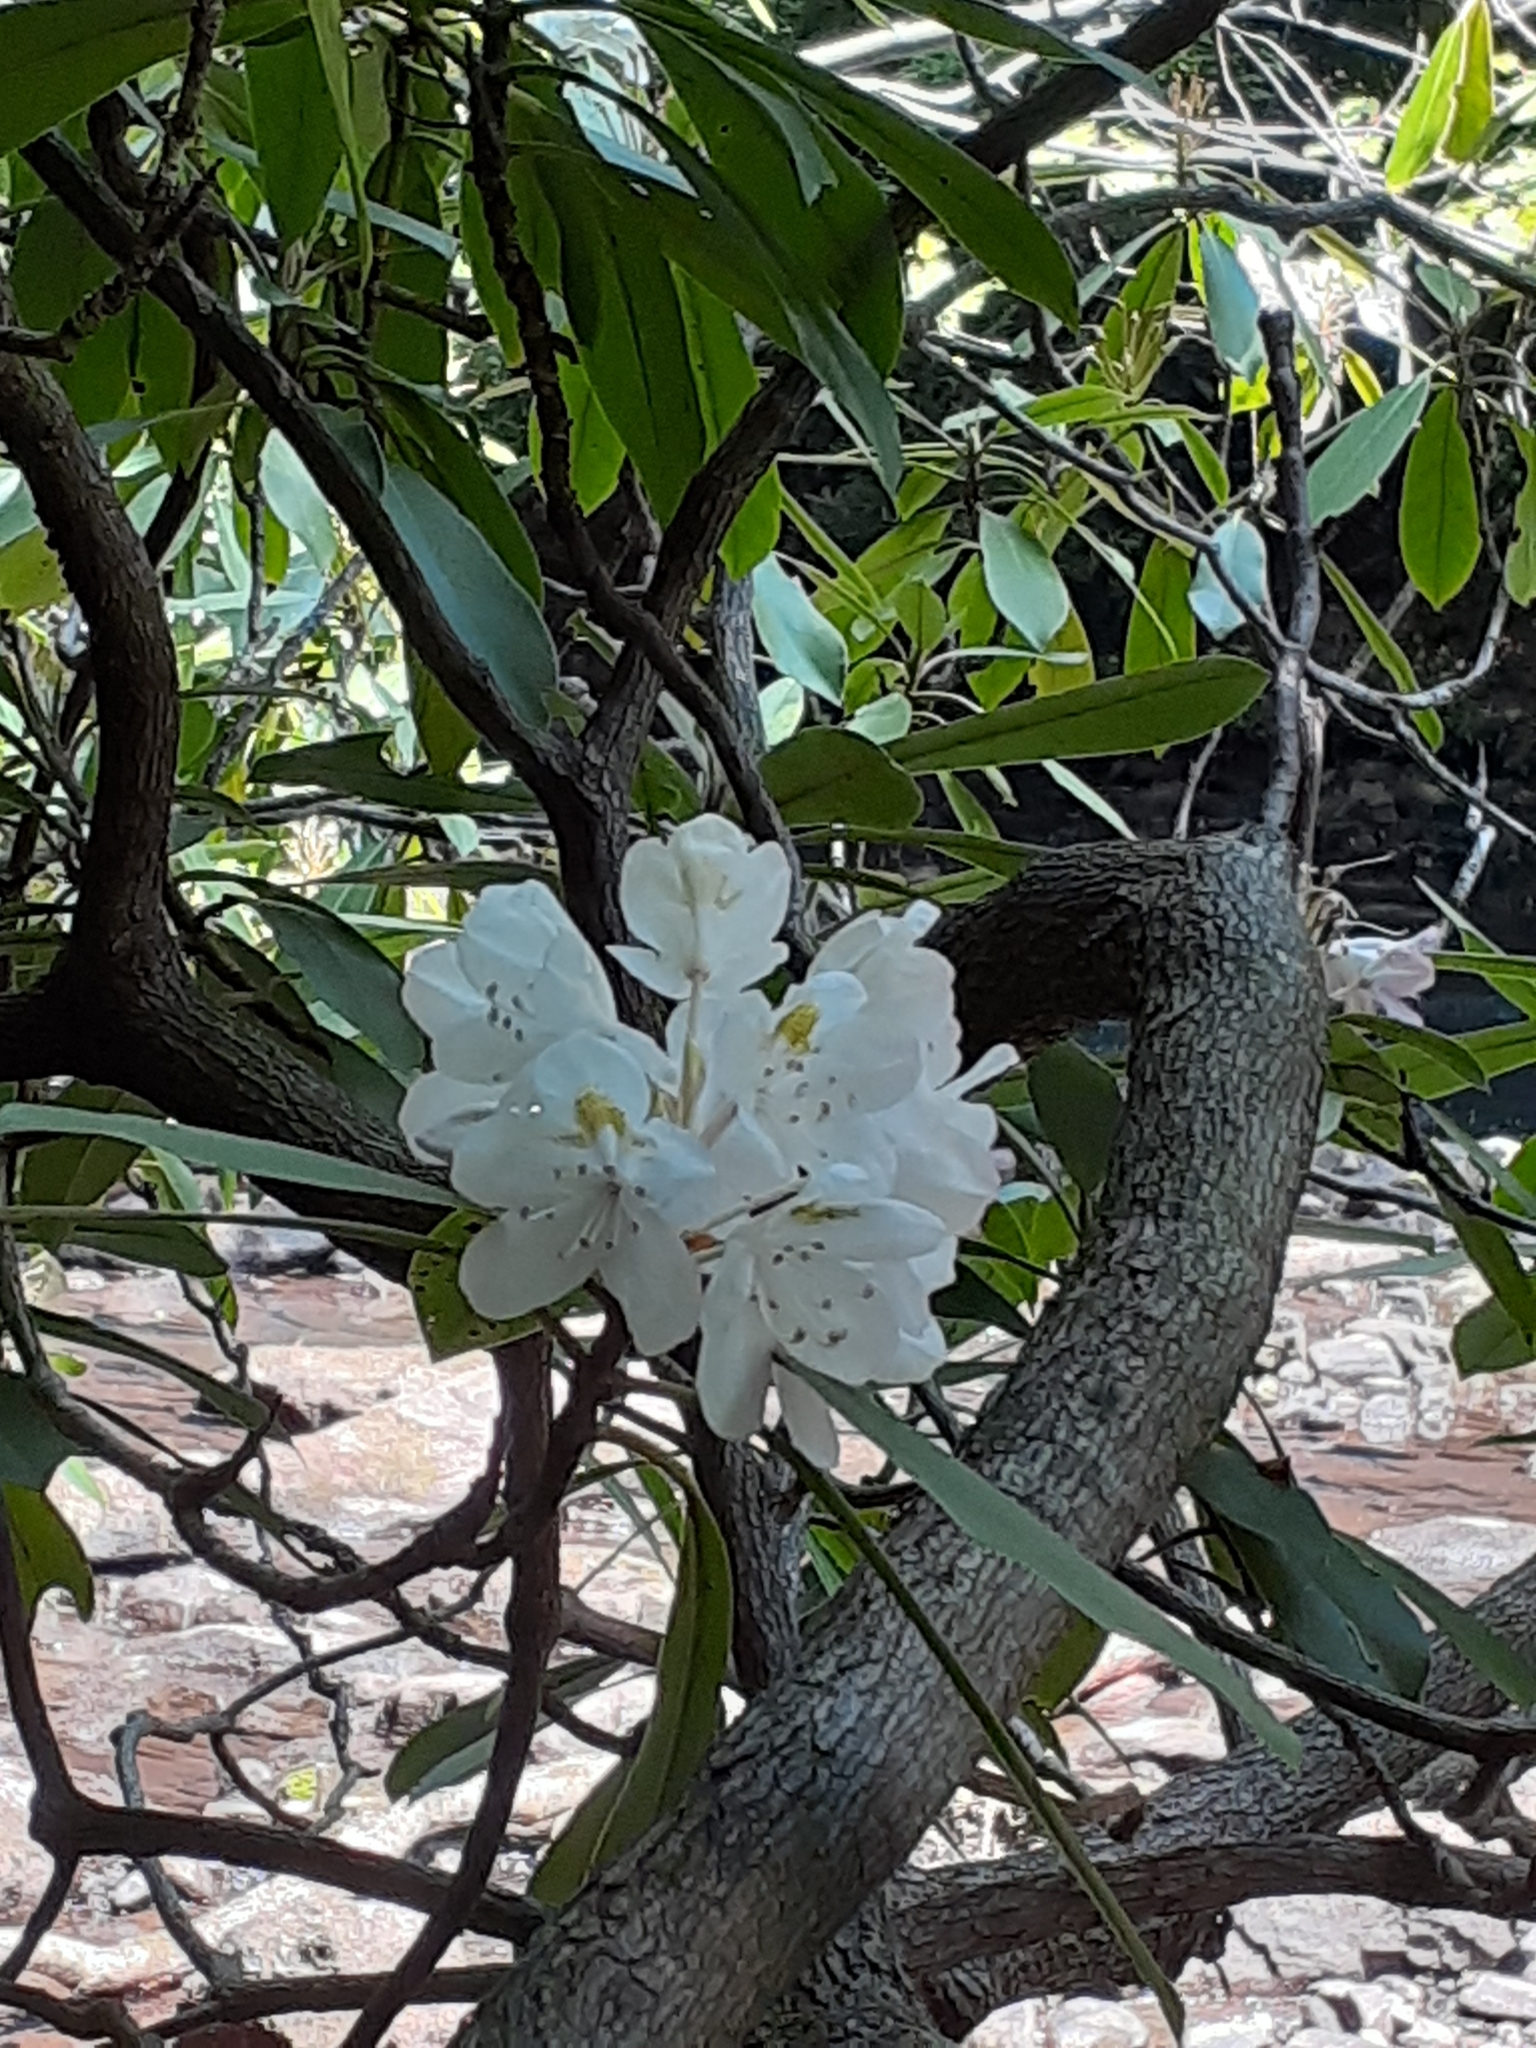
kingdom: Plantae
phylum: Tracheophyta
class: Magnoliopsida
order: Ericales
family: Ericaceae
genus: Rhododendron
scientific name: Rhododendron maximum
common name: Great rhododendron
